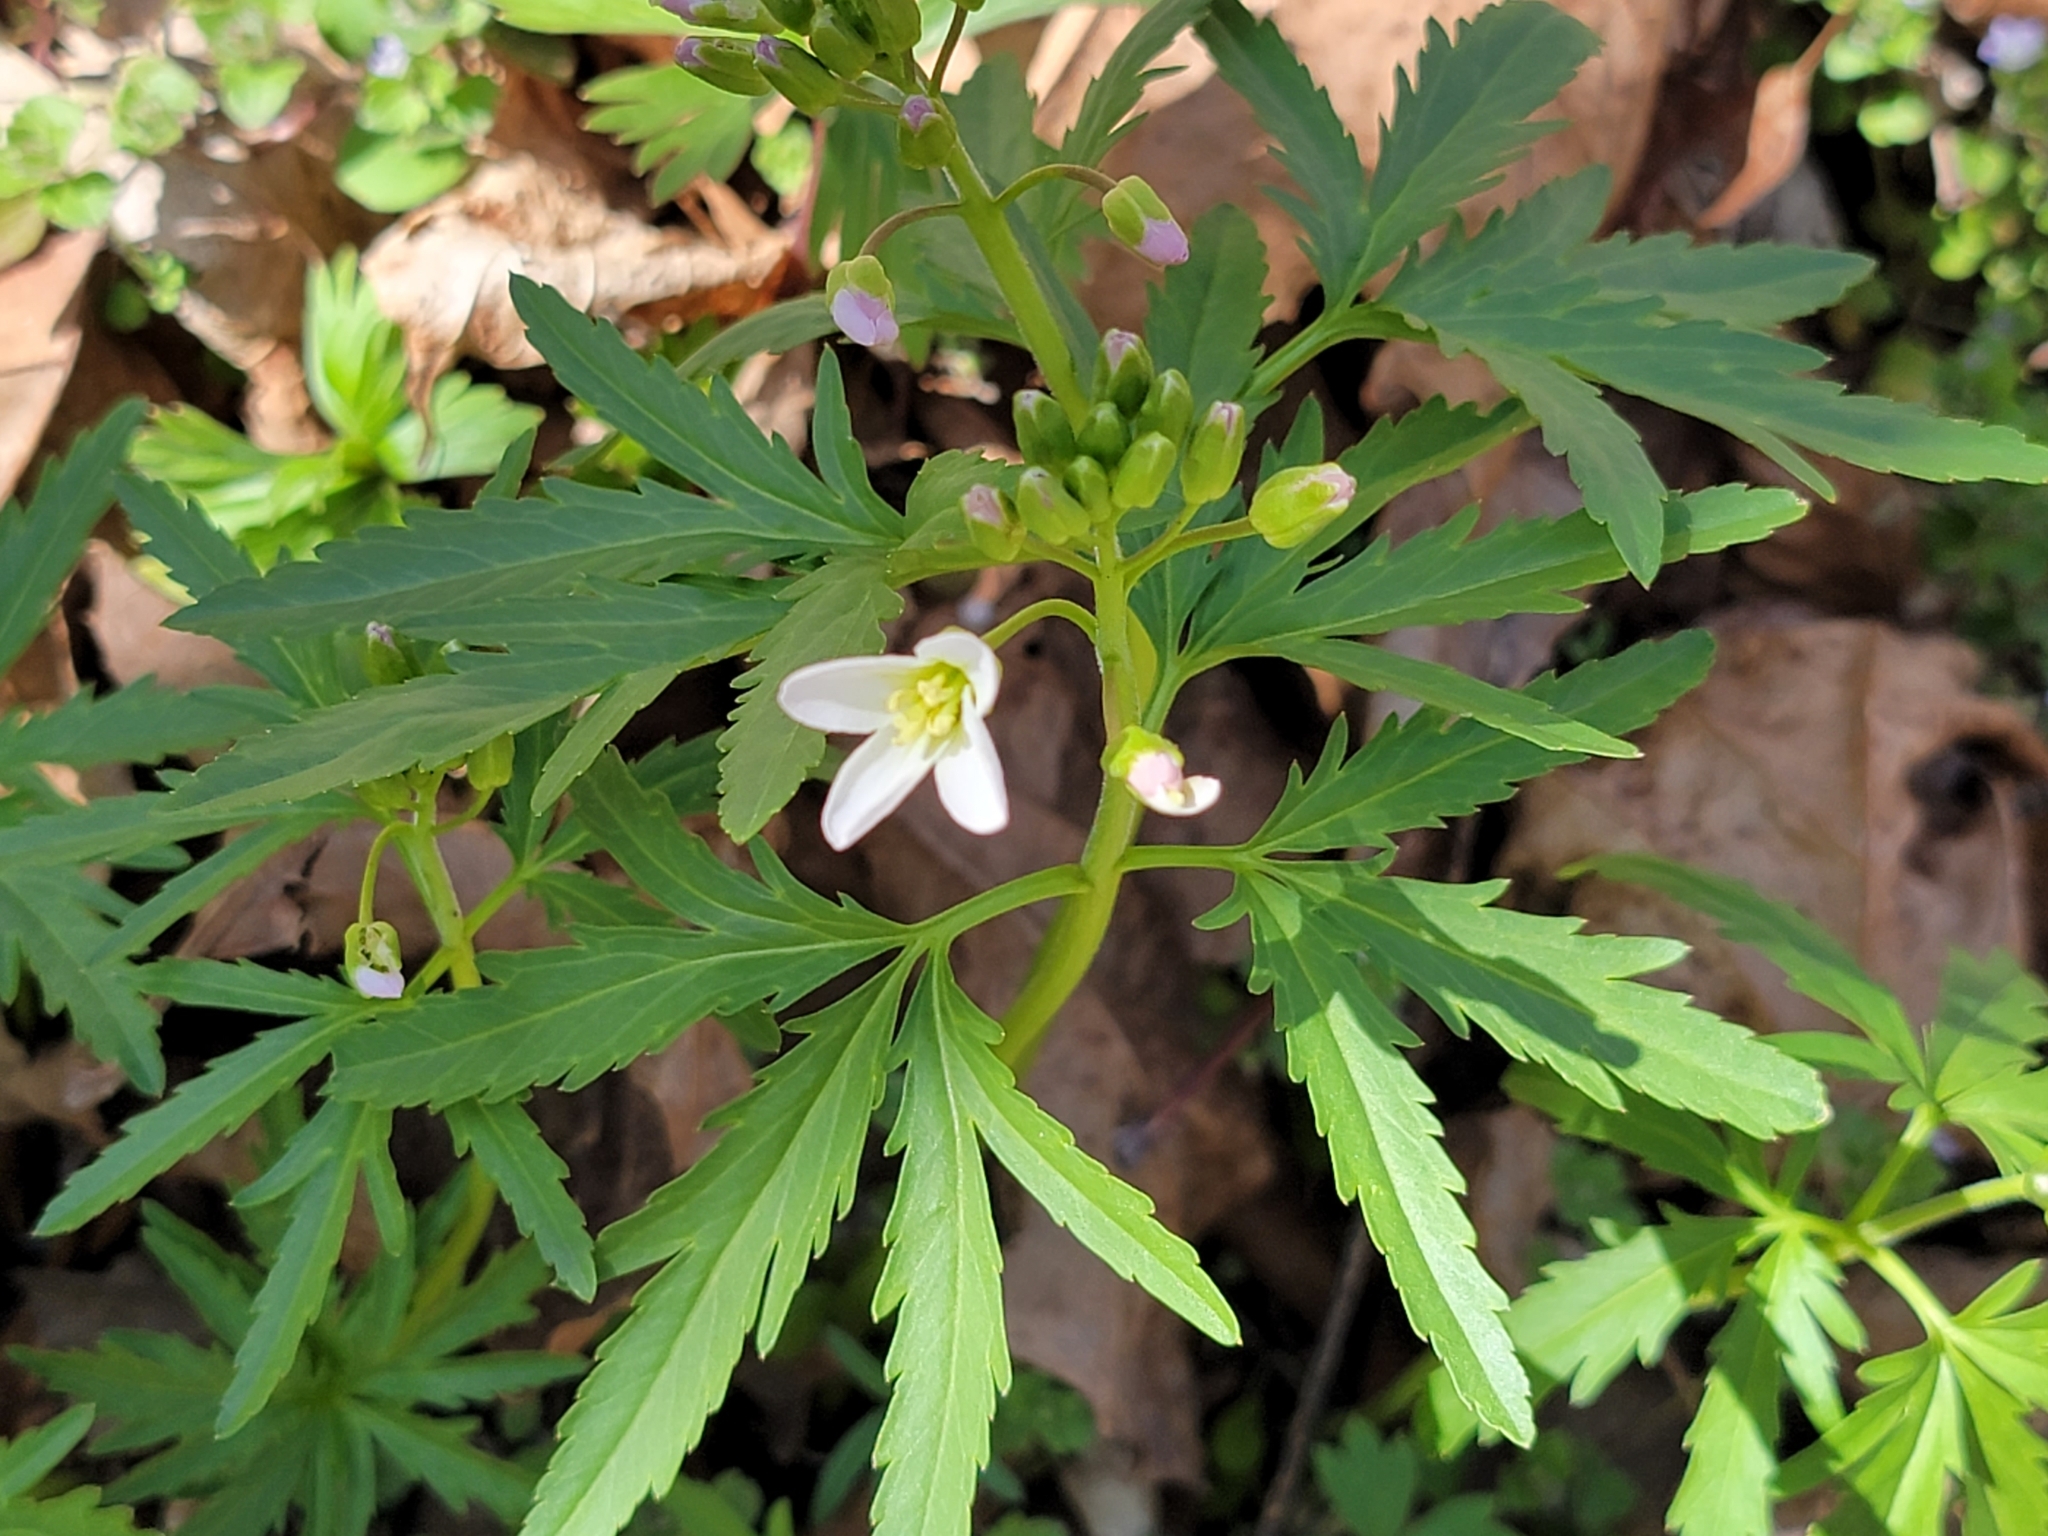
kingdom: Plantae
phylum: Tracheophyta
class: Magnoliopsida
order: Brassicales
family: Brassicaceae
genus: Cardamine
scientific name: Cardamine concatenata
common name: Cut-leaf toothcup
